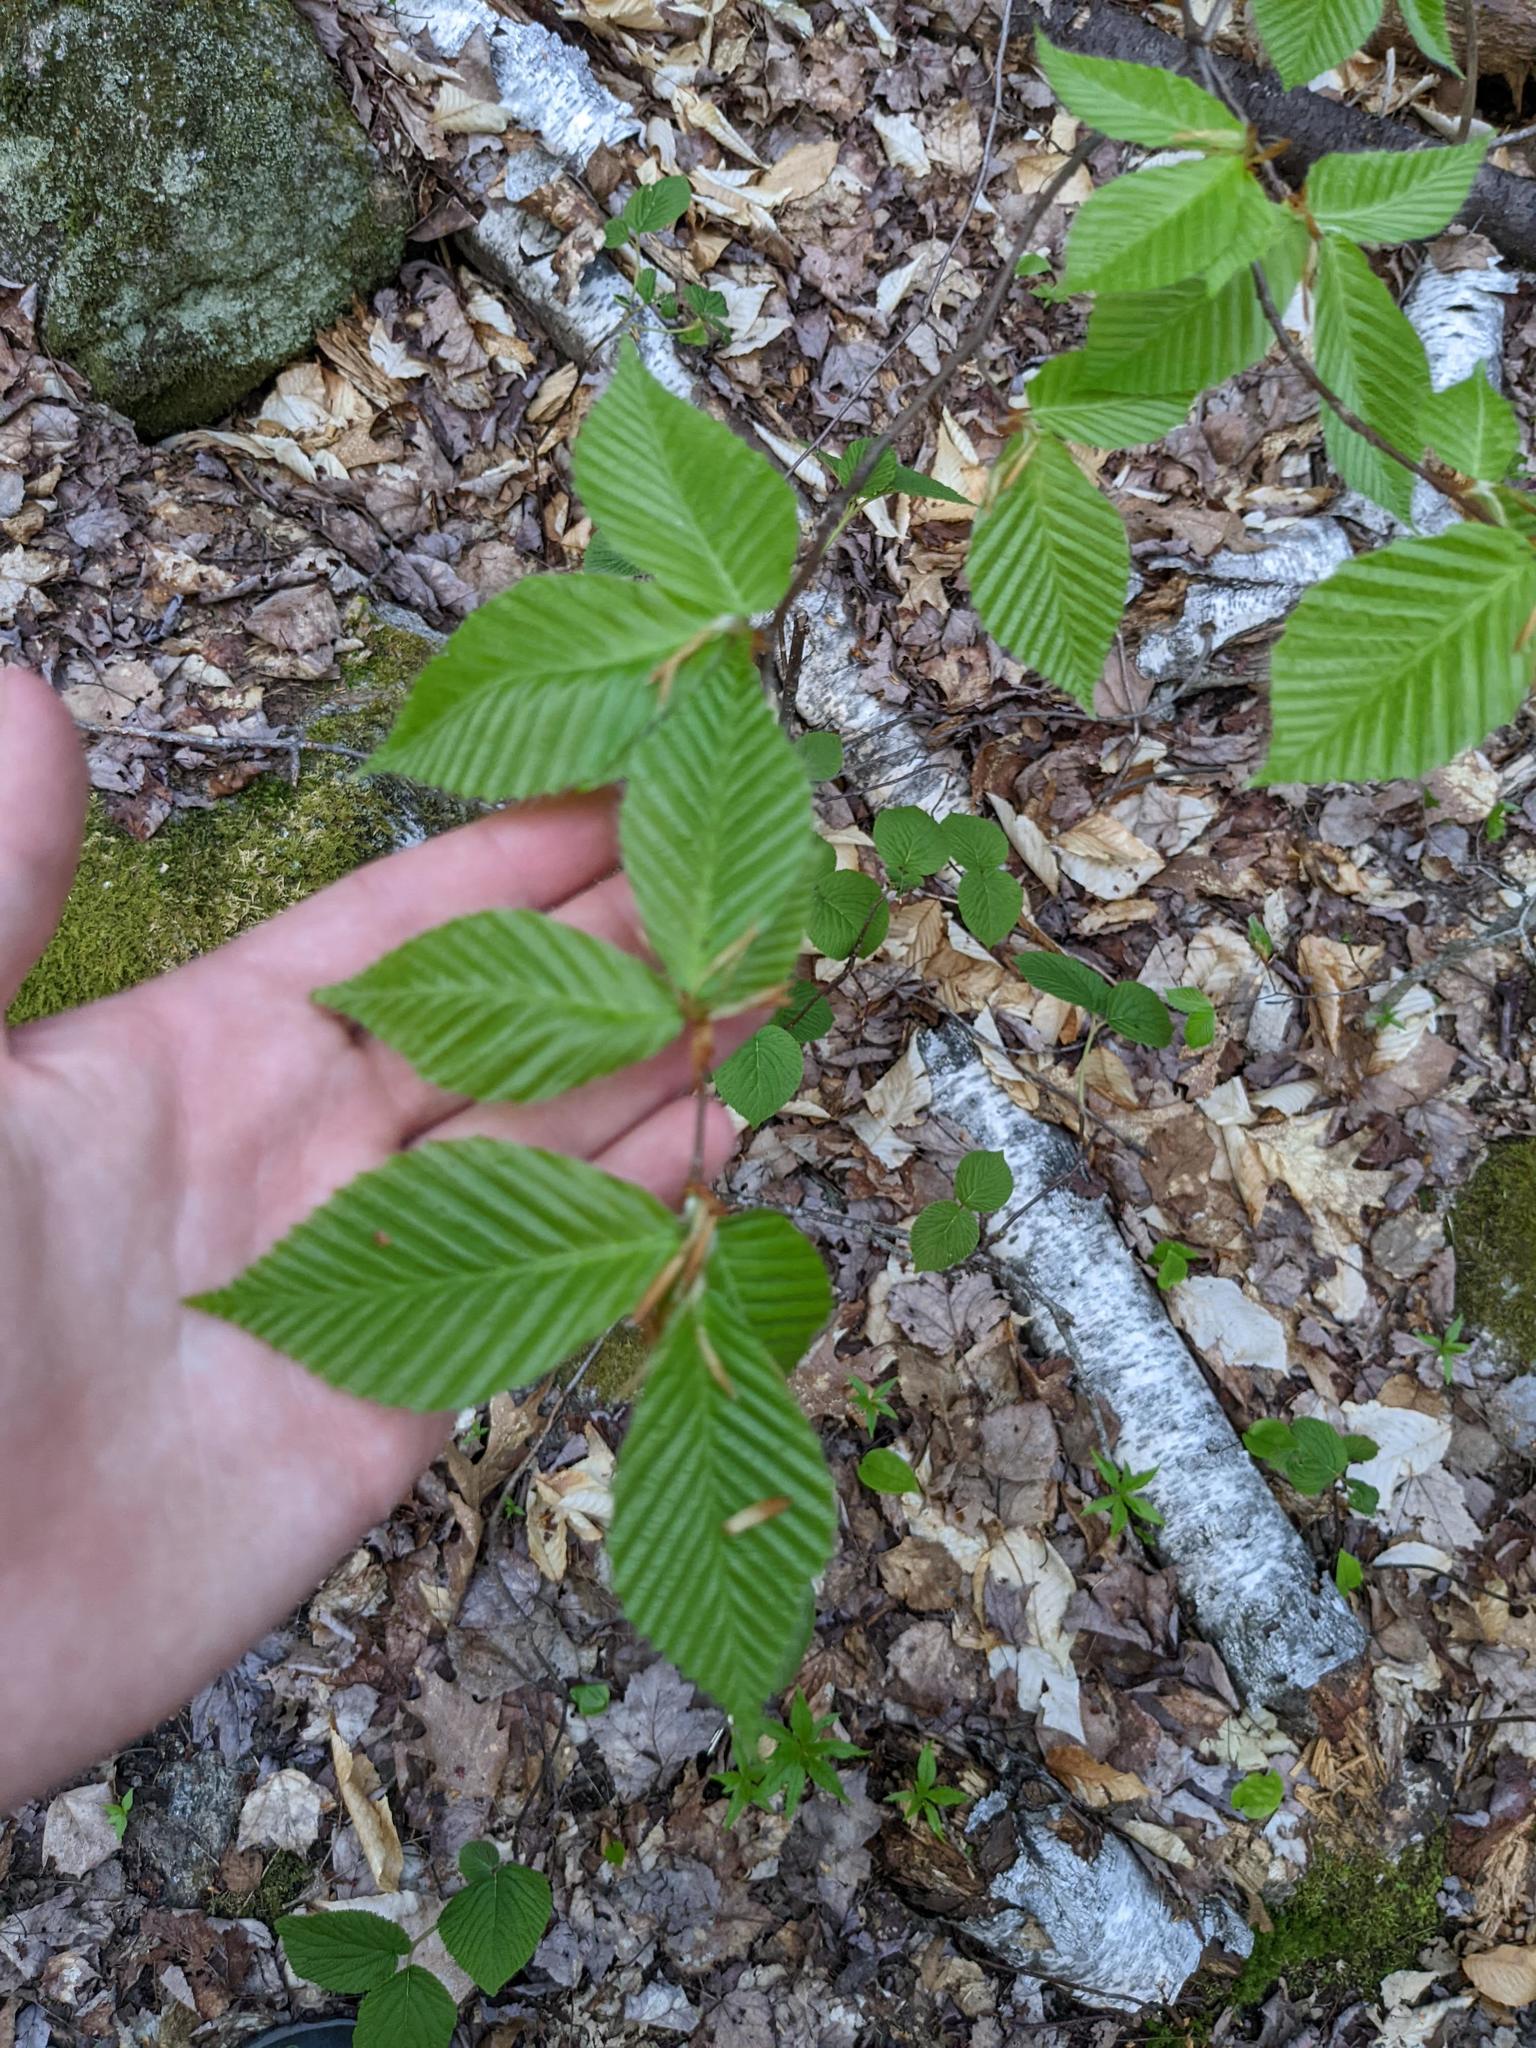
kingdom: Plantae
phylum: Tracheophyta
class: Magnoliopsida
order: Fagales
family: Fagaceae
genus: Fagus
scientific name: Fagus grandifolia
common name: American beech
